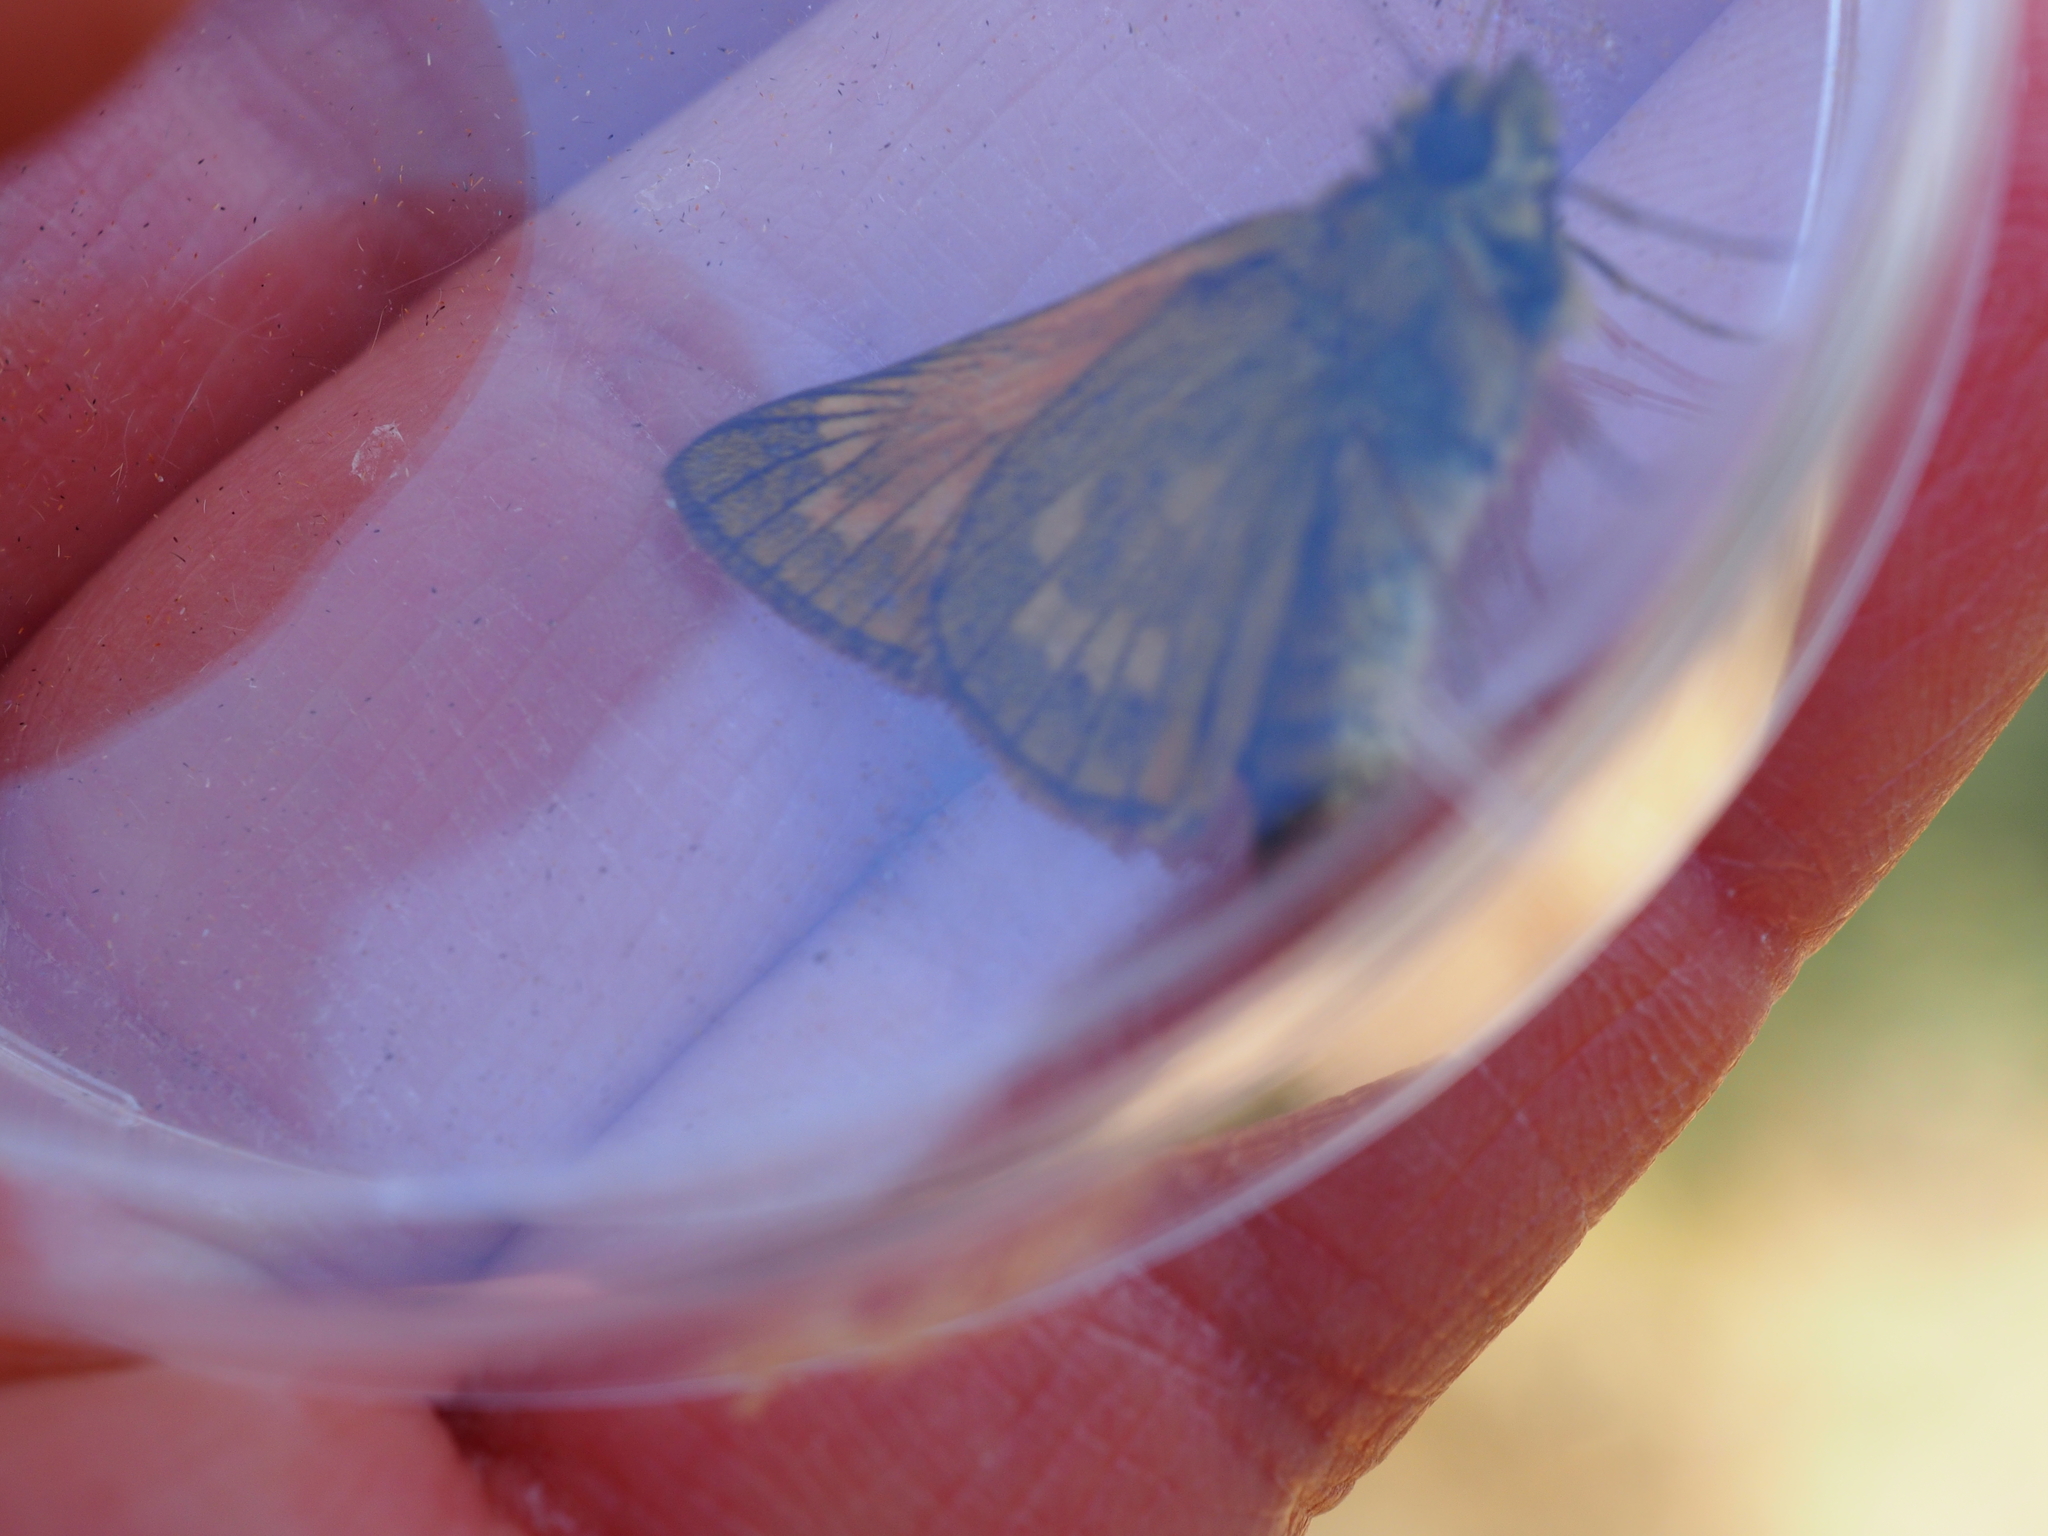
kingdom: Animalia
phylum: Arthropoda
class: Insecta
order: Lepidoptera
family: Hesperiidae
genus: Ochlodes
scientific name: Ochlodes venata
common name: Large skipper
